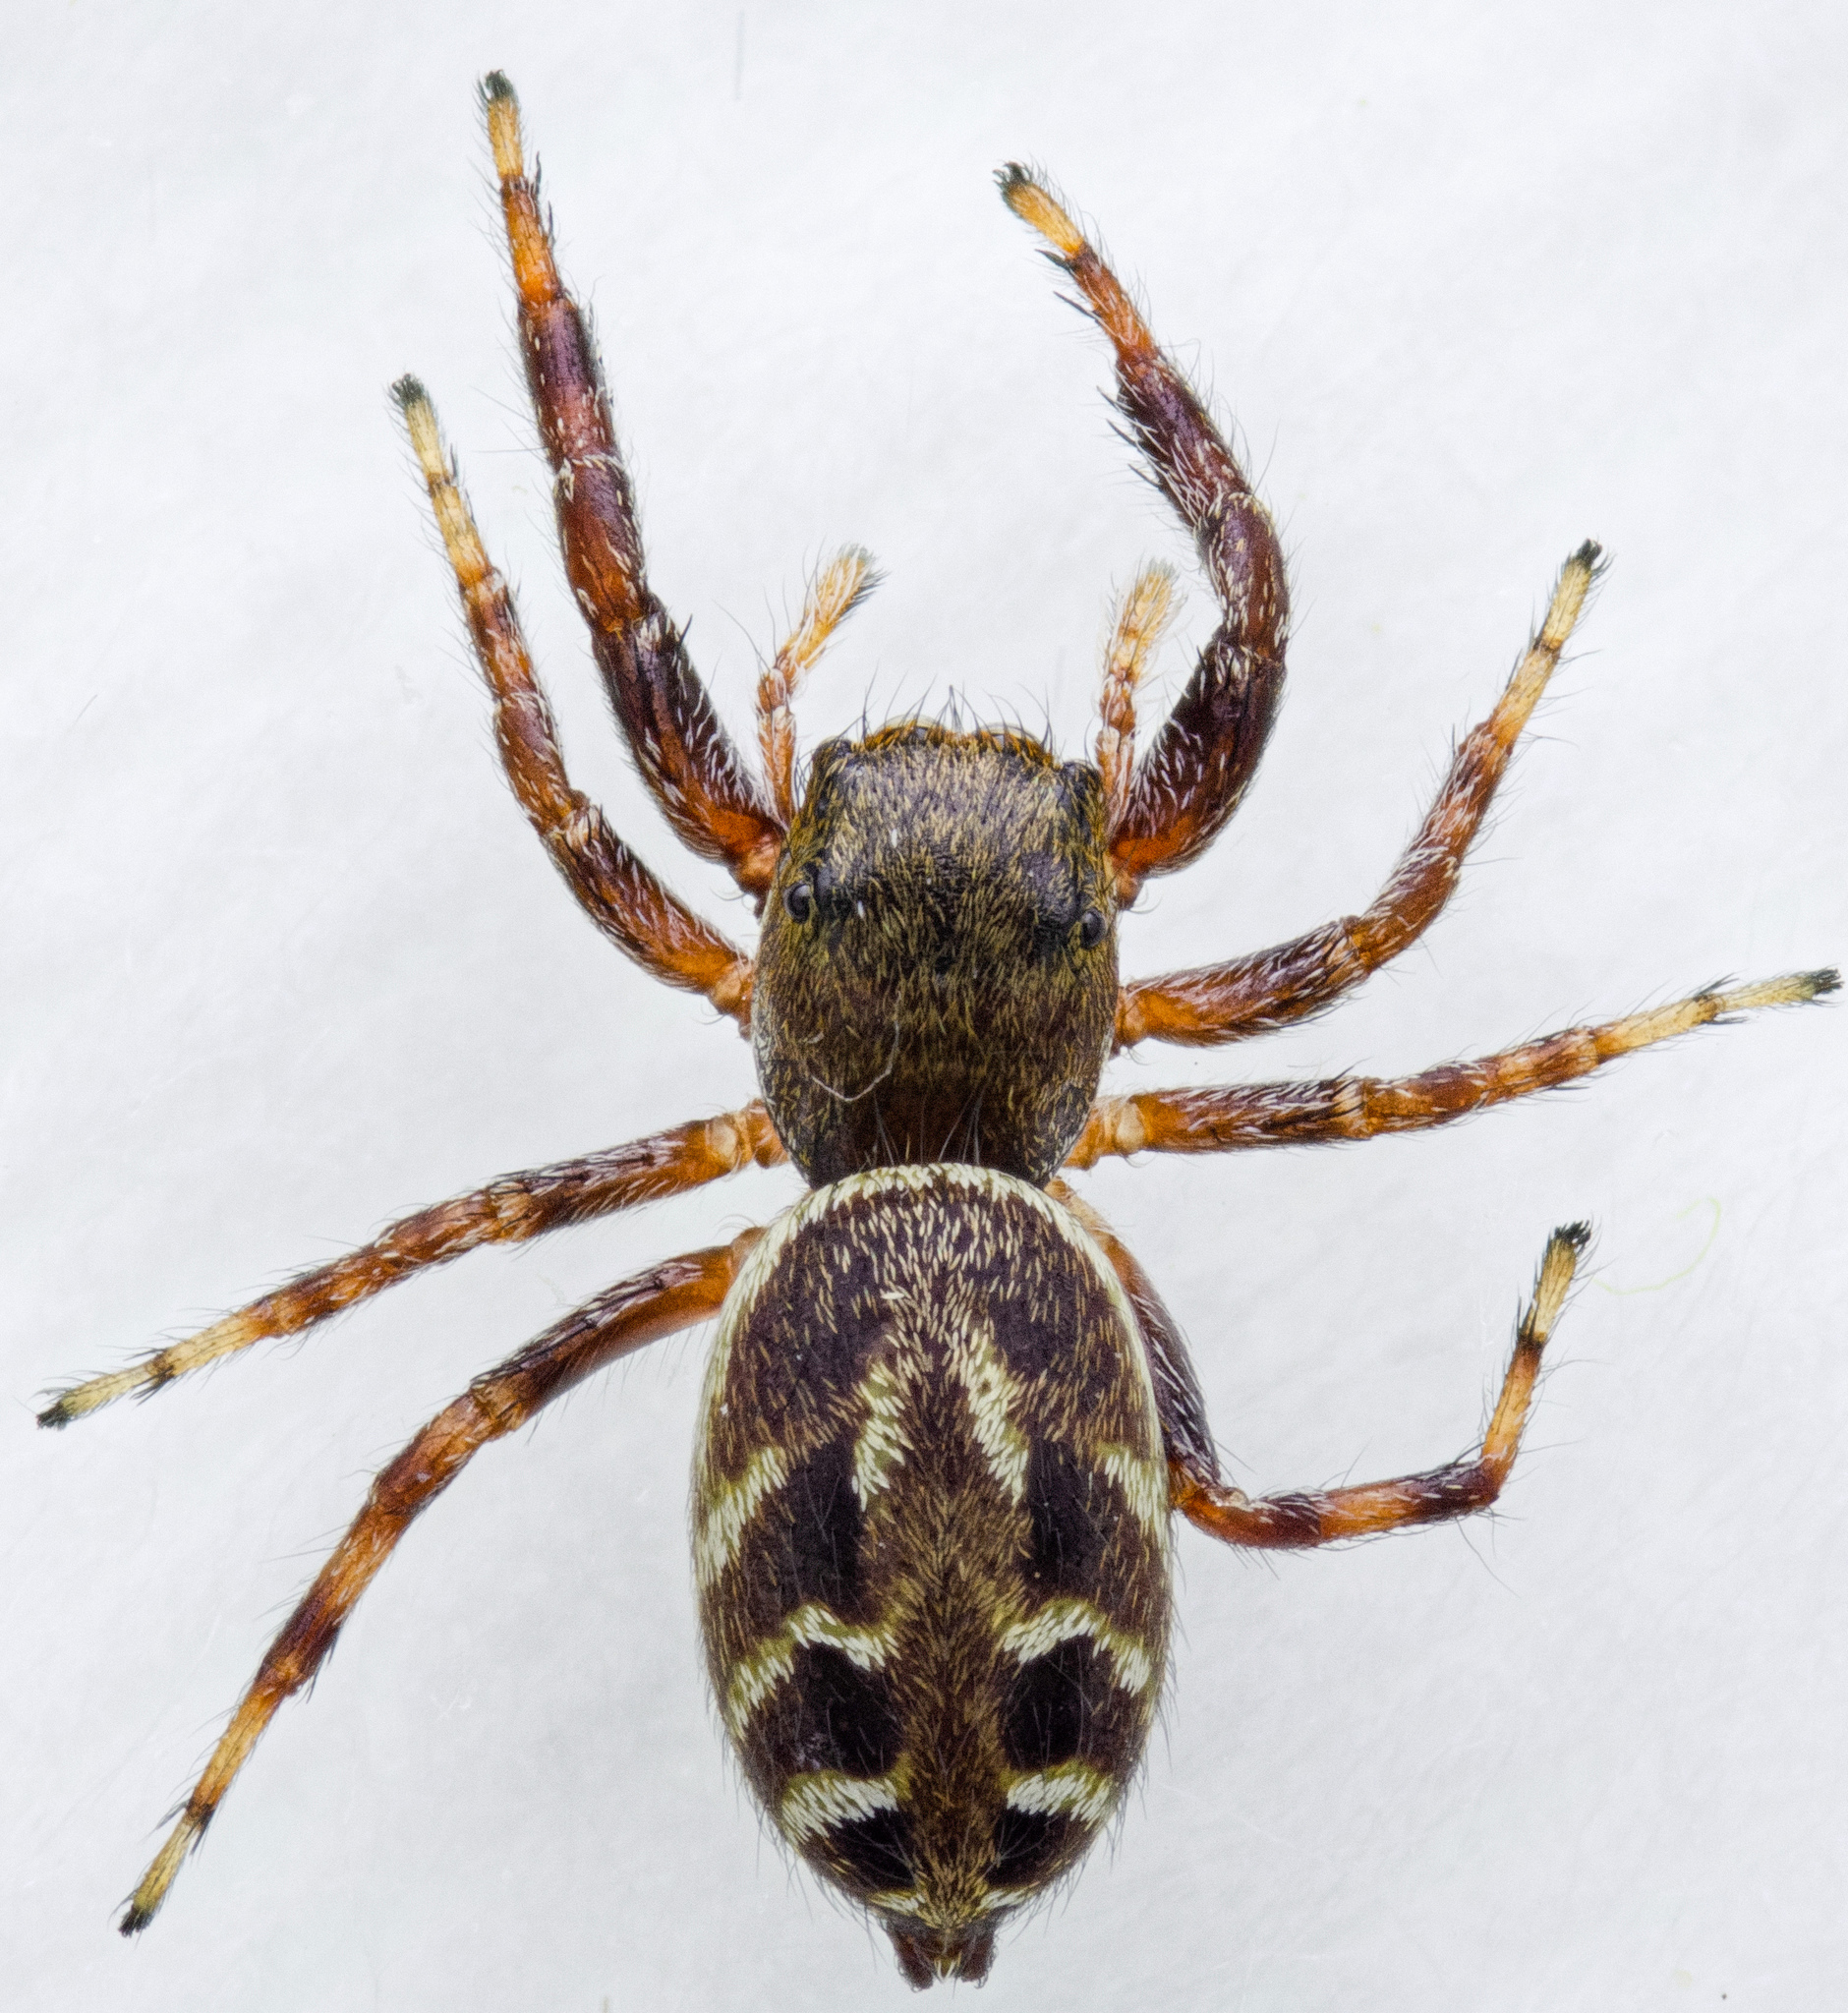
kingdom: Animalia
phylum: Arthropoda
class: Arachnida
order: Araneae
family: Salticidae
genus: Metaphidippus
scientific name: Metaphidippus manni
